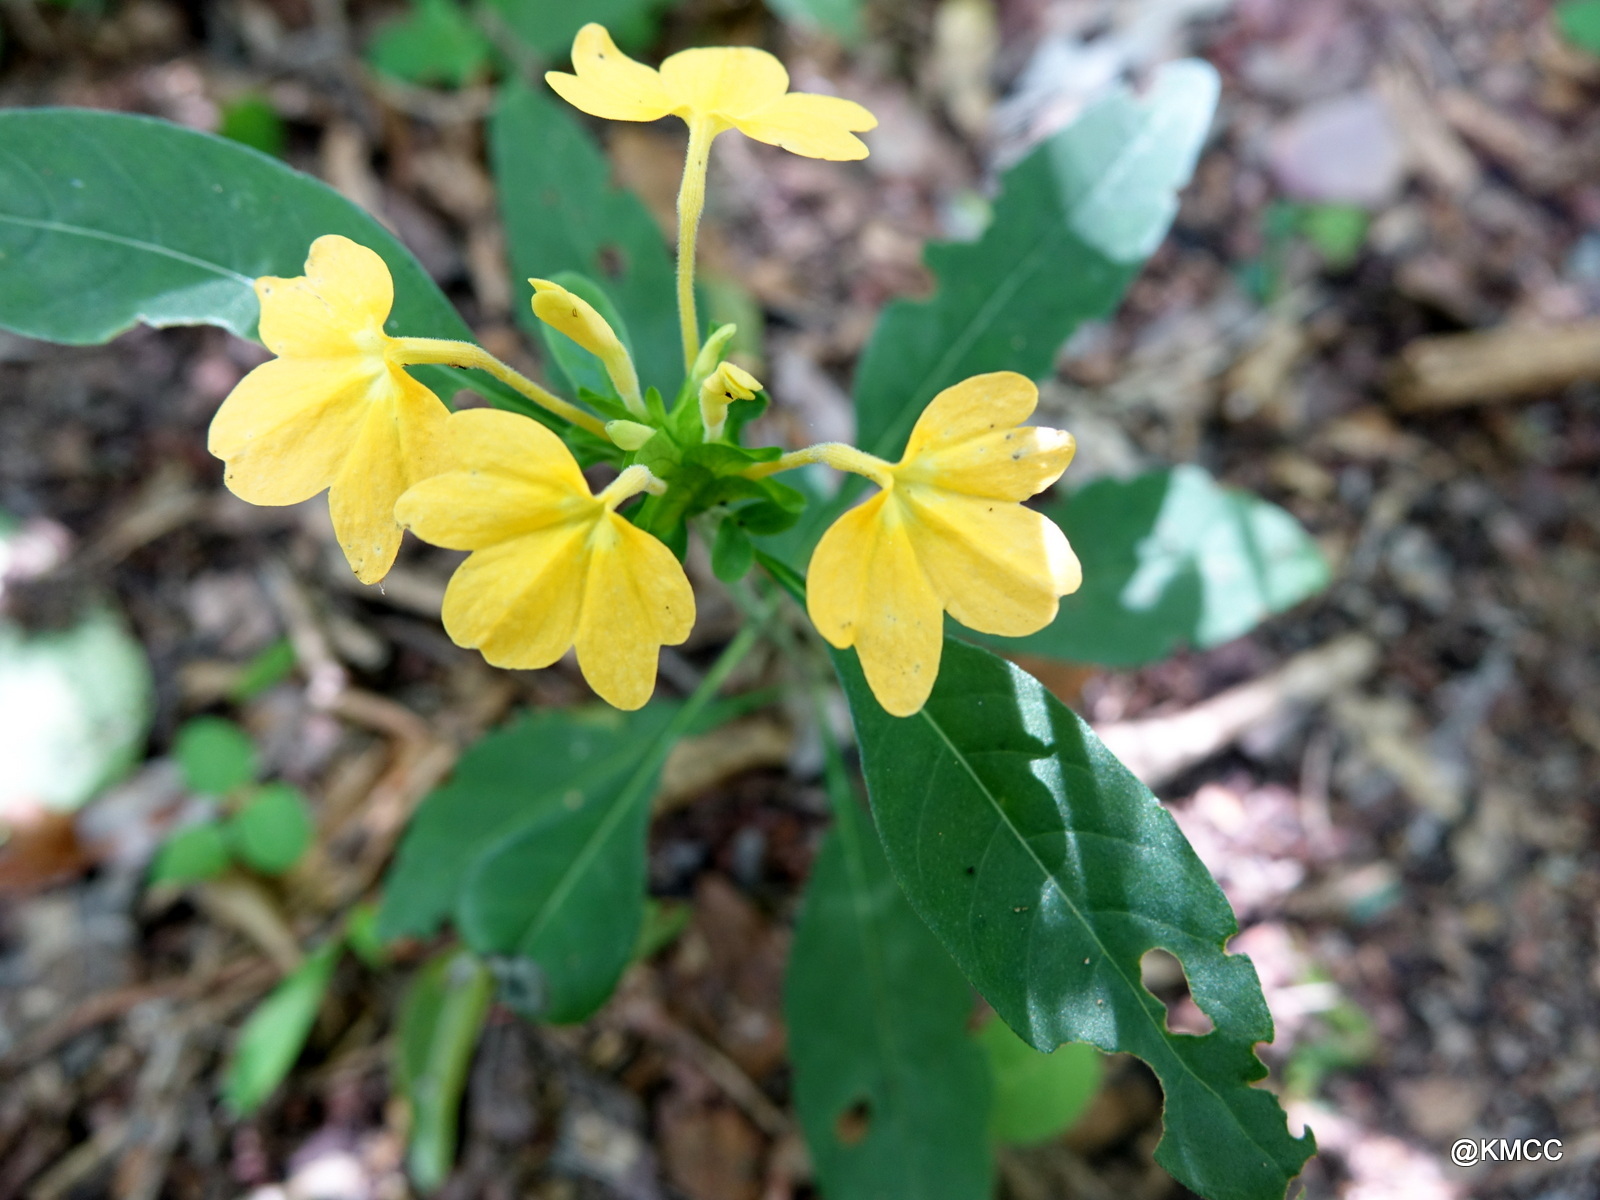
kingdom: Plantae
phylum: Tracheophyta
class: Magnoliopsida
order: Lamiales
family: Acanthaceae
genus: Crossandra
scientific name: Crossandra stenandrium
